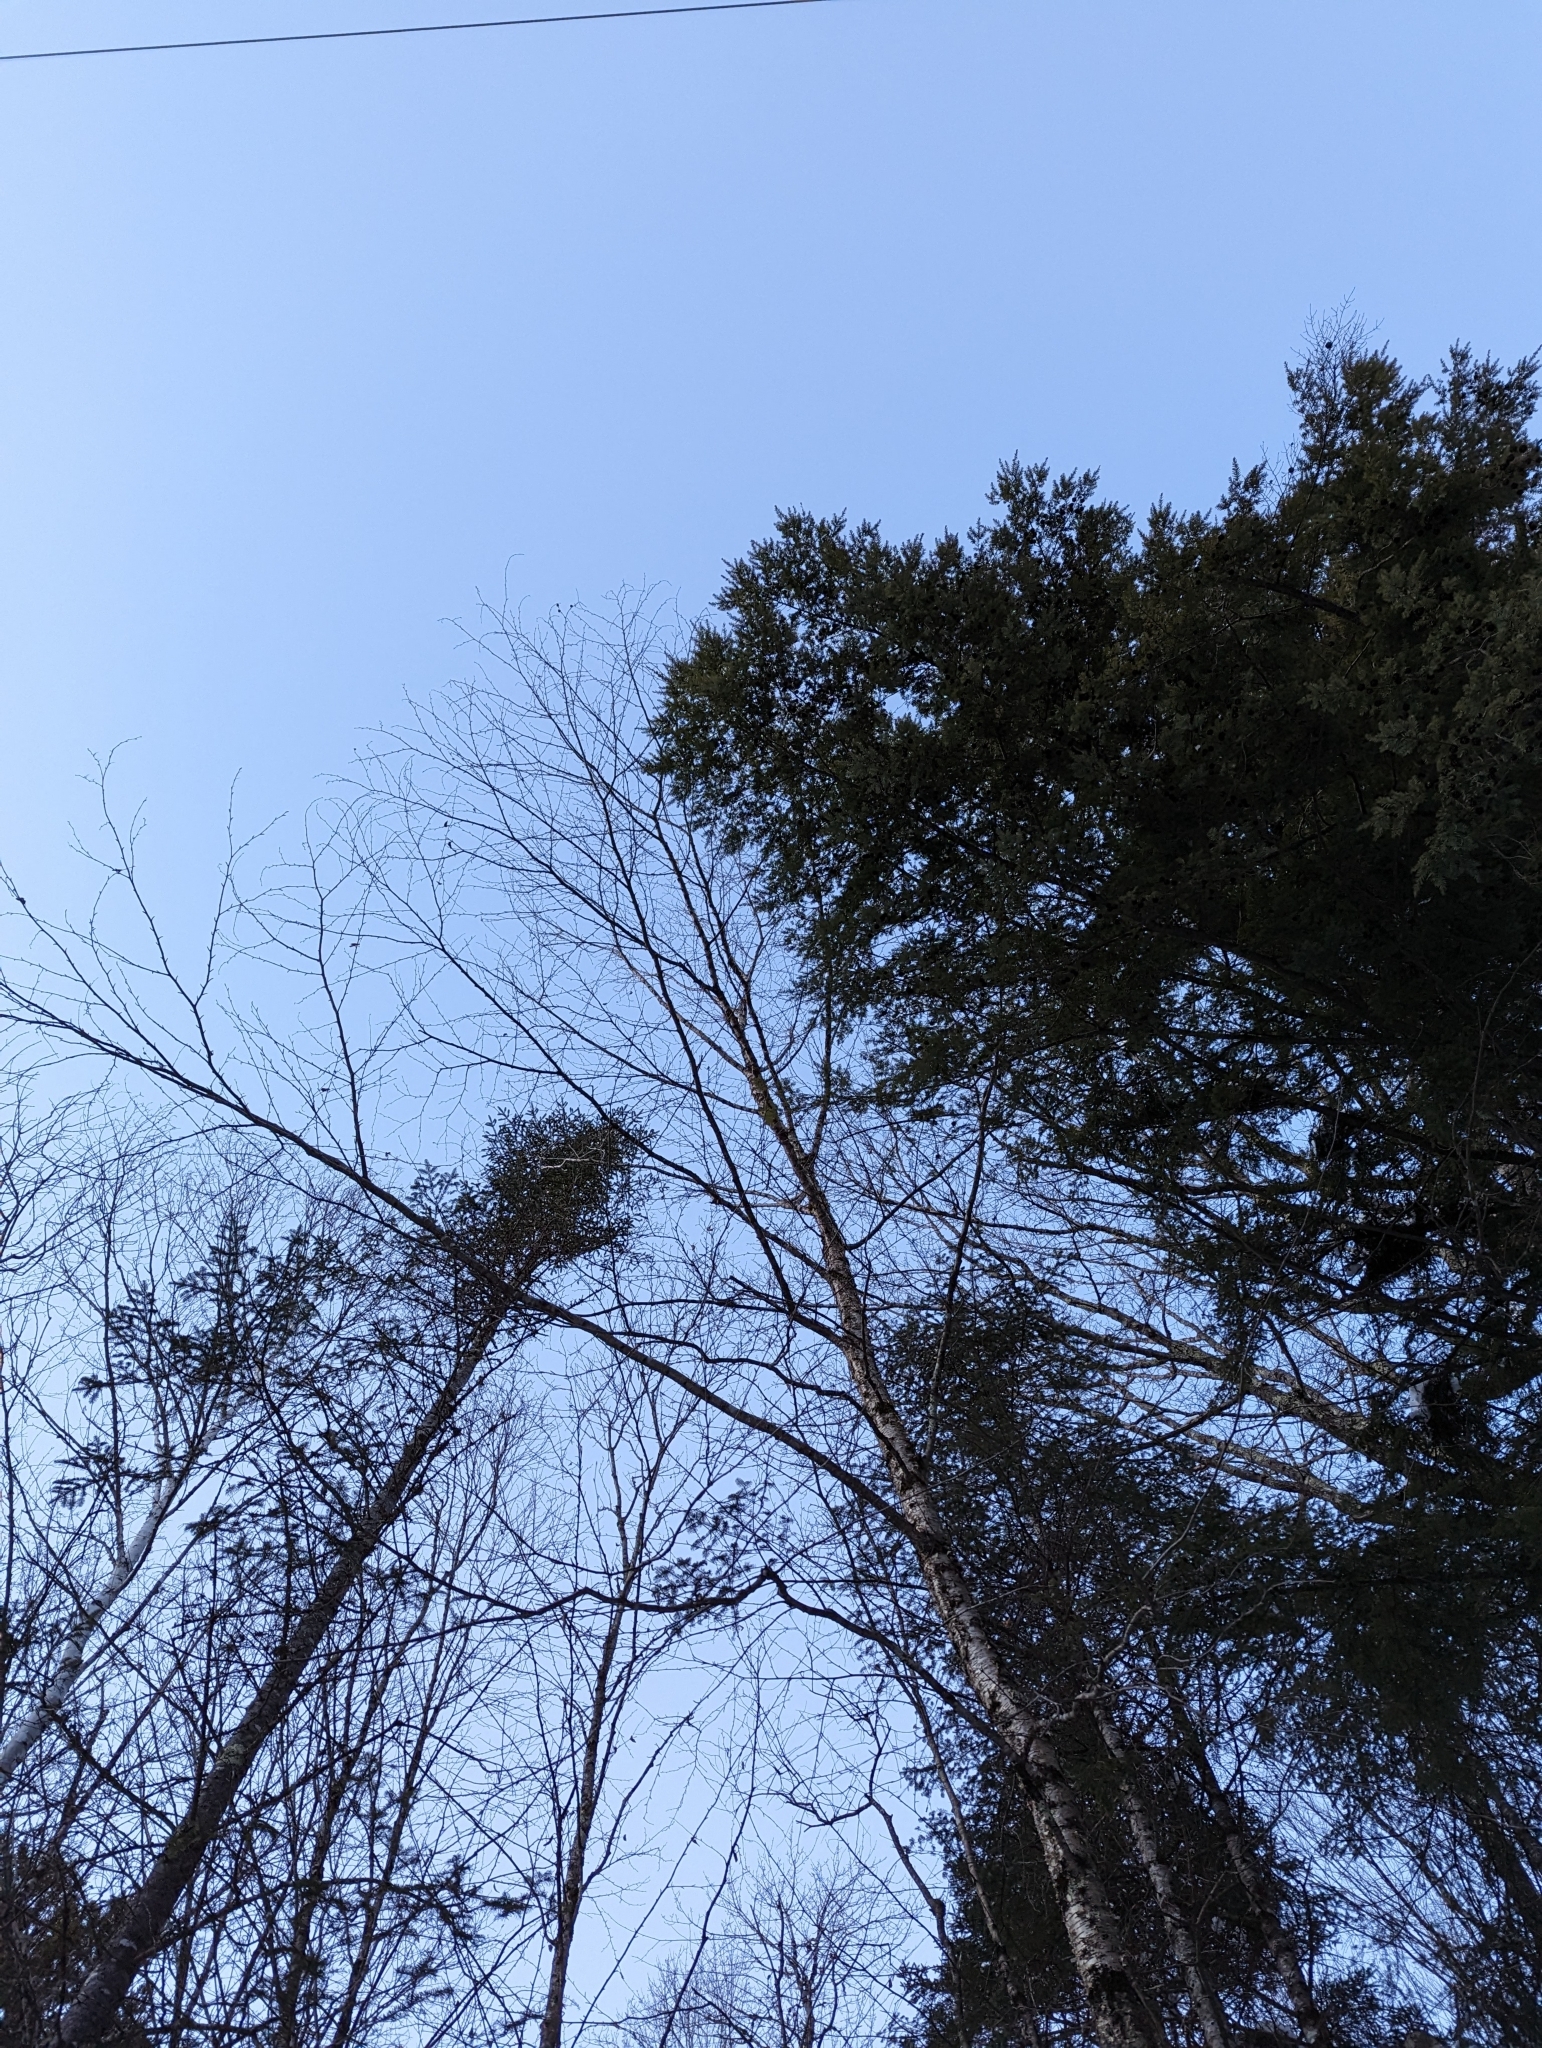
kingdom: Plantae
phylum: Tracheophyta
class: Magnoliopsida
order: Fagales
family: Betulaceae
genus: Betula
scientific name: Betula alleghaniensis
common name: Yellow birch
